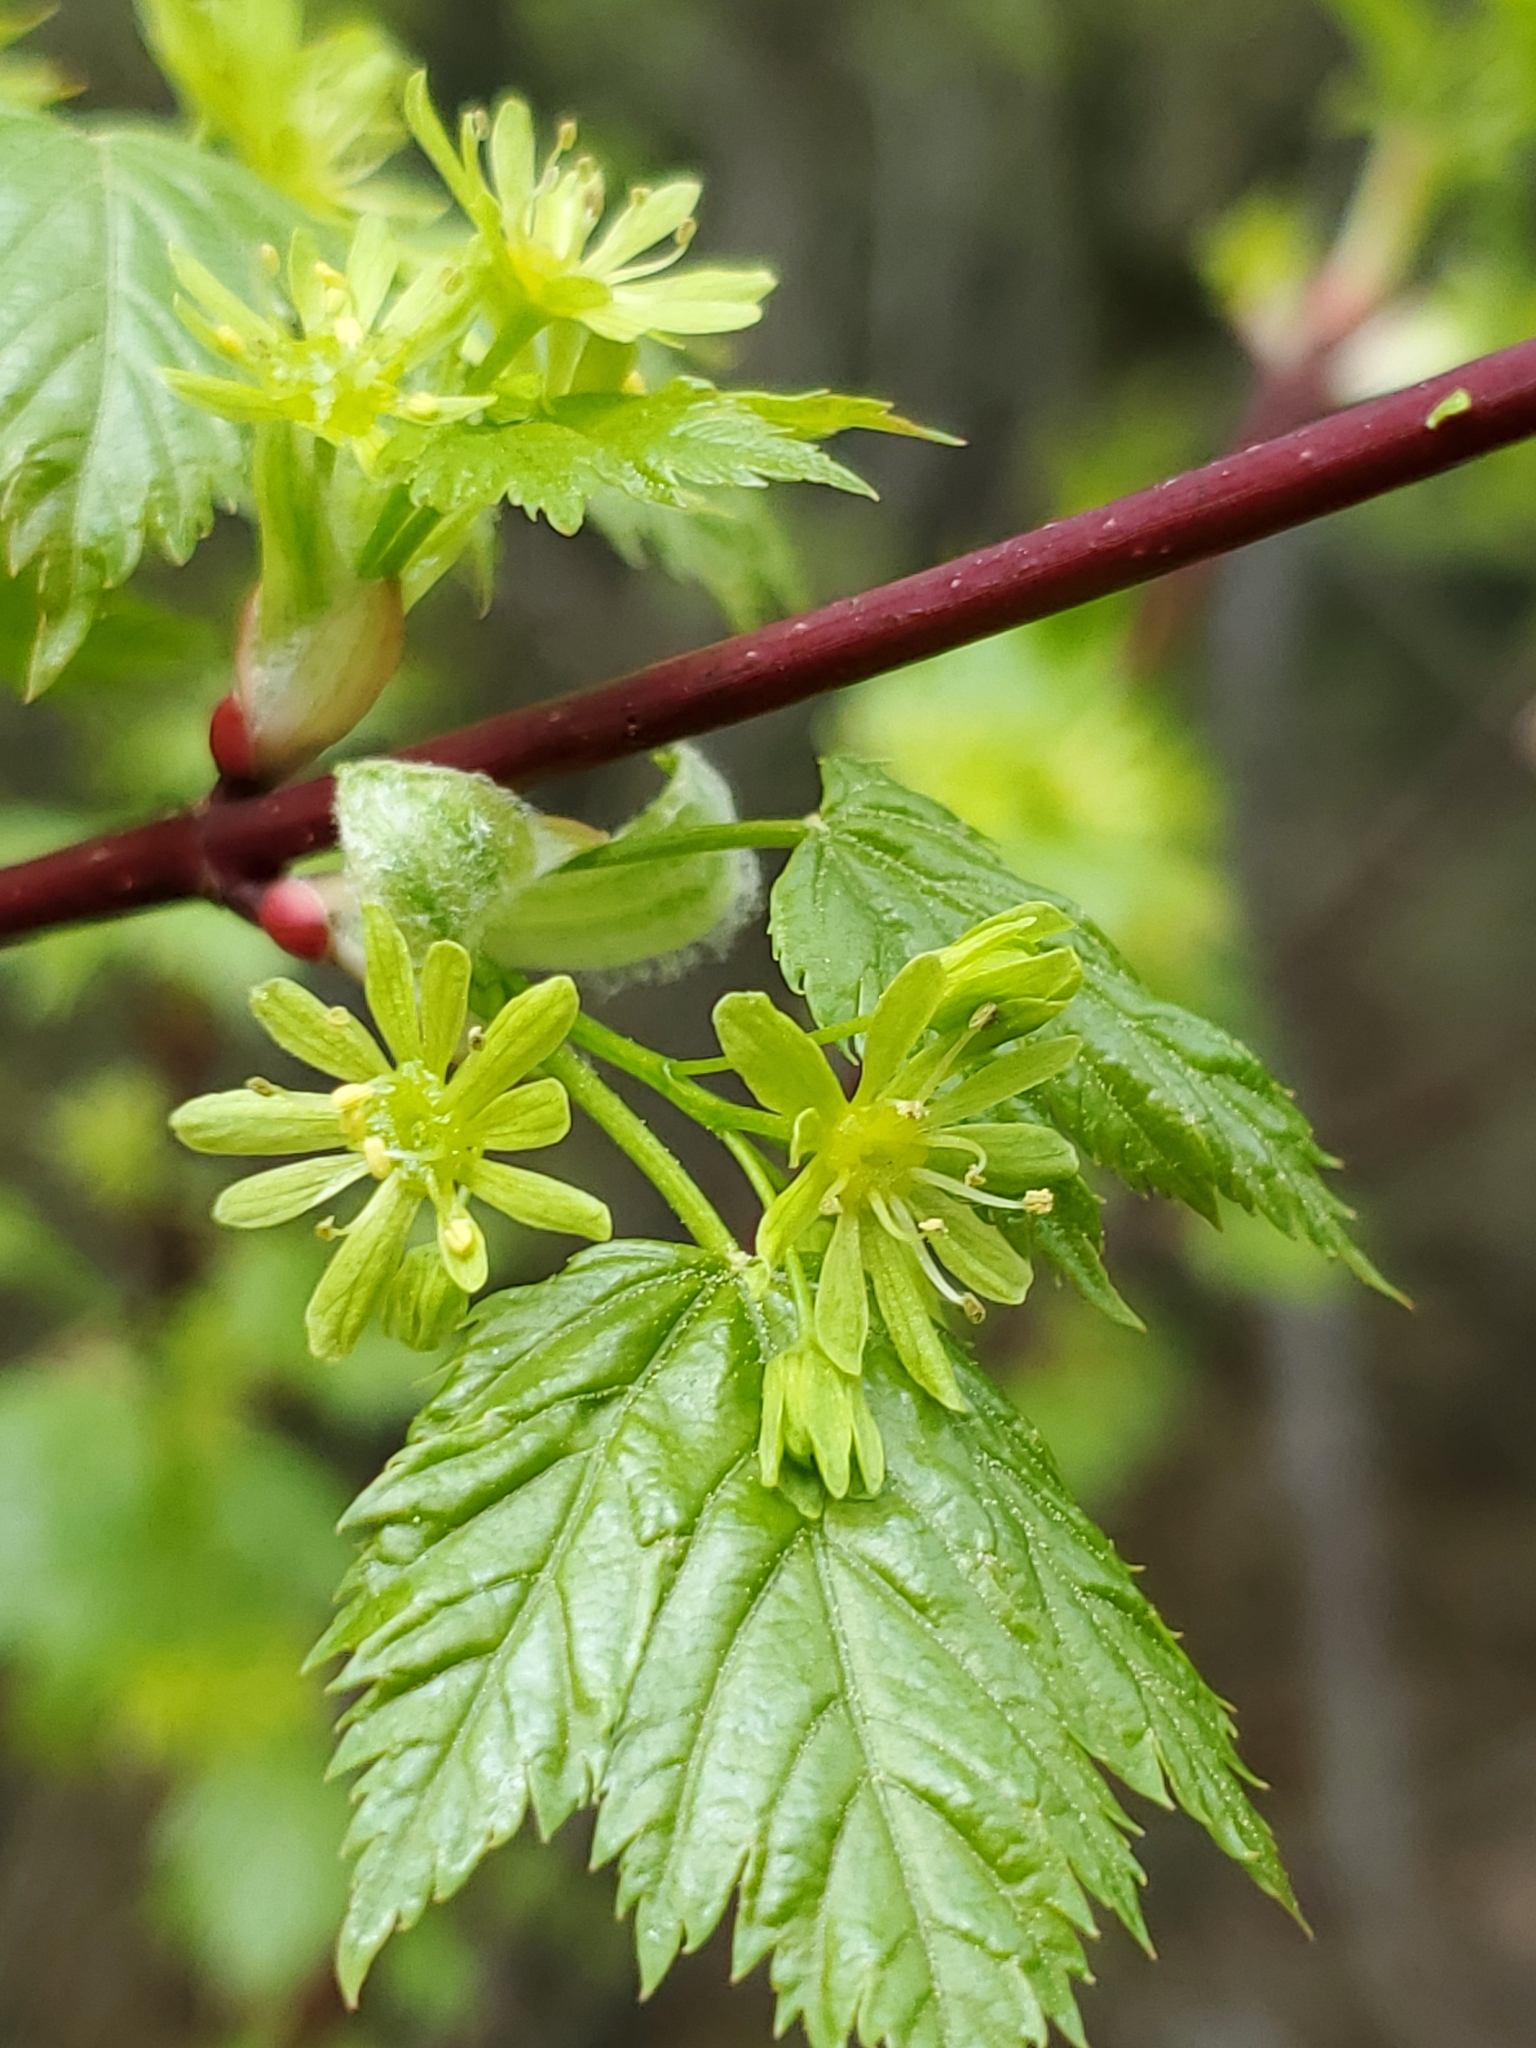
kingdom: Plantae
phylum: Tracheophyta
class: Magnoliopsida
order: Sapindales
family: Sapindaceae
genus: Acer
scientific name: Acer glabrum
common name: Rocky mountain maple
